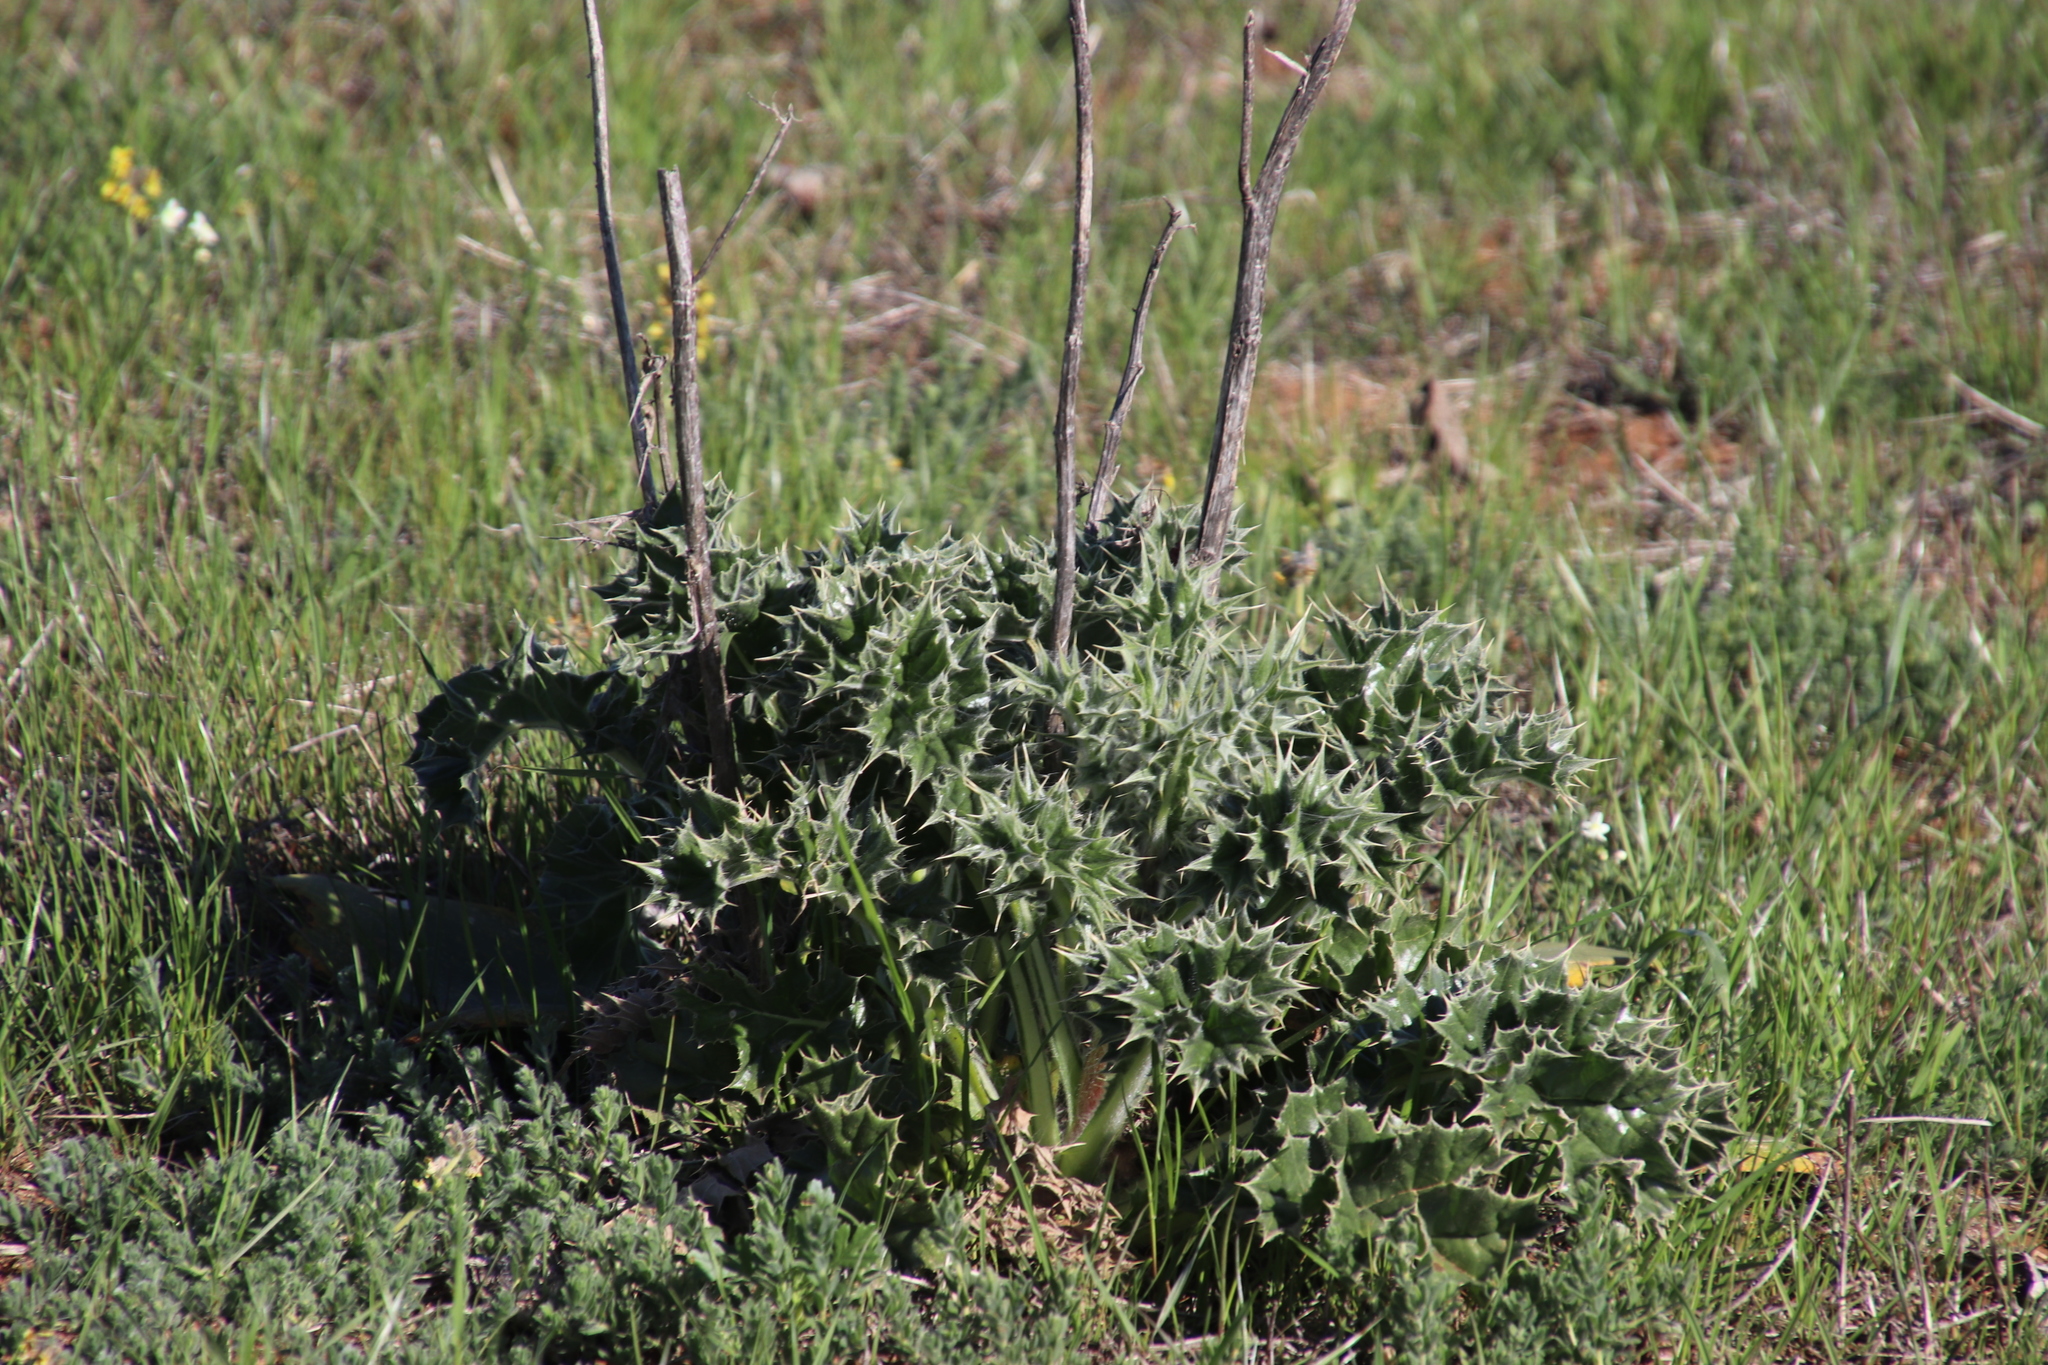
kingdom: Plantae
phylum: Tracheophyta
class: Magnoliopsida
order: Asterales
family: Asteraceae
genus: Berkheya
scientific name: Berkheya glabrata
